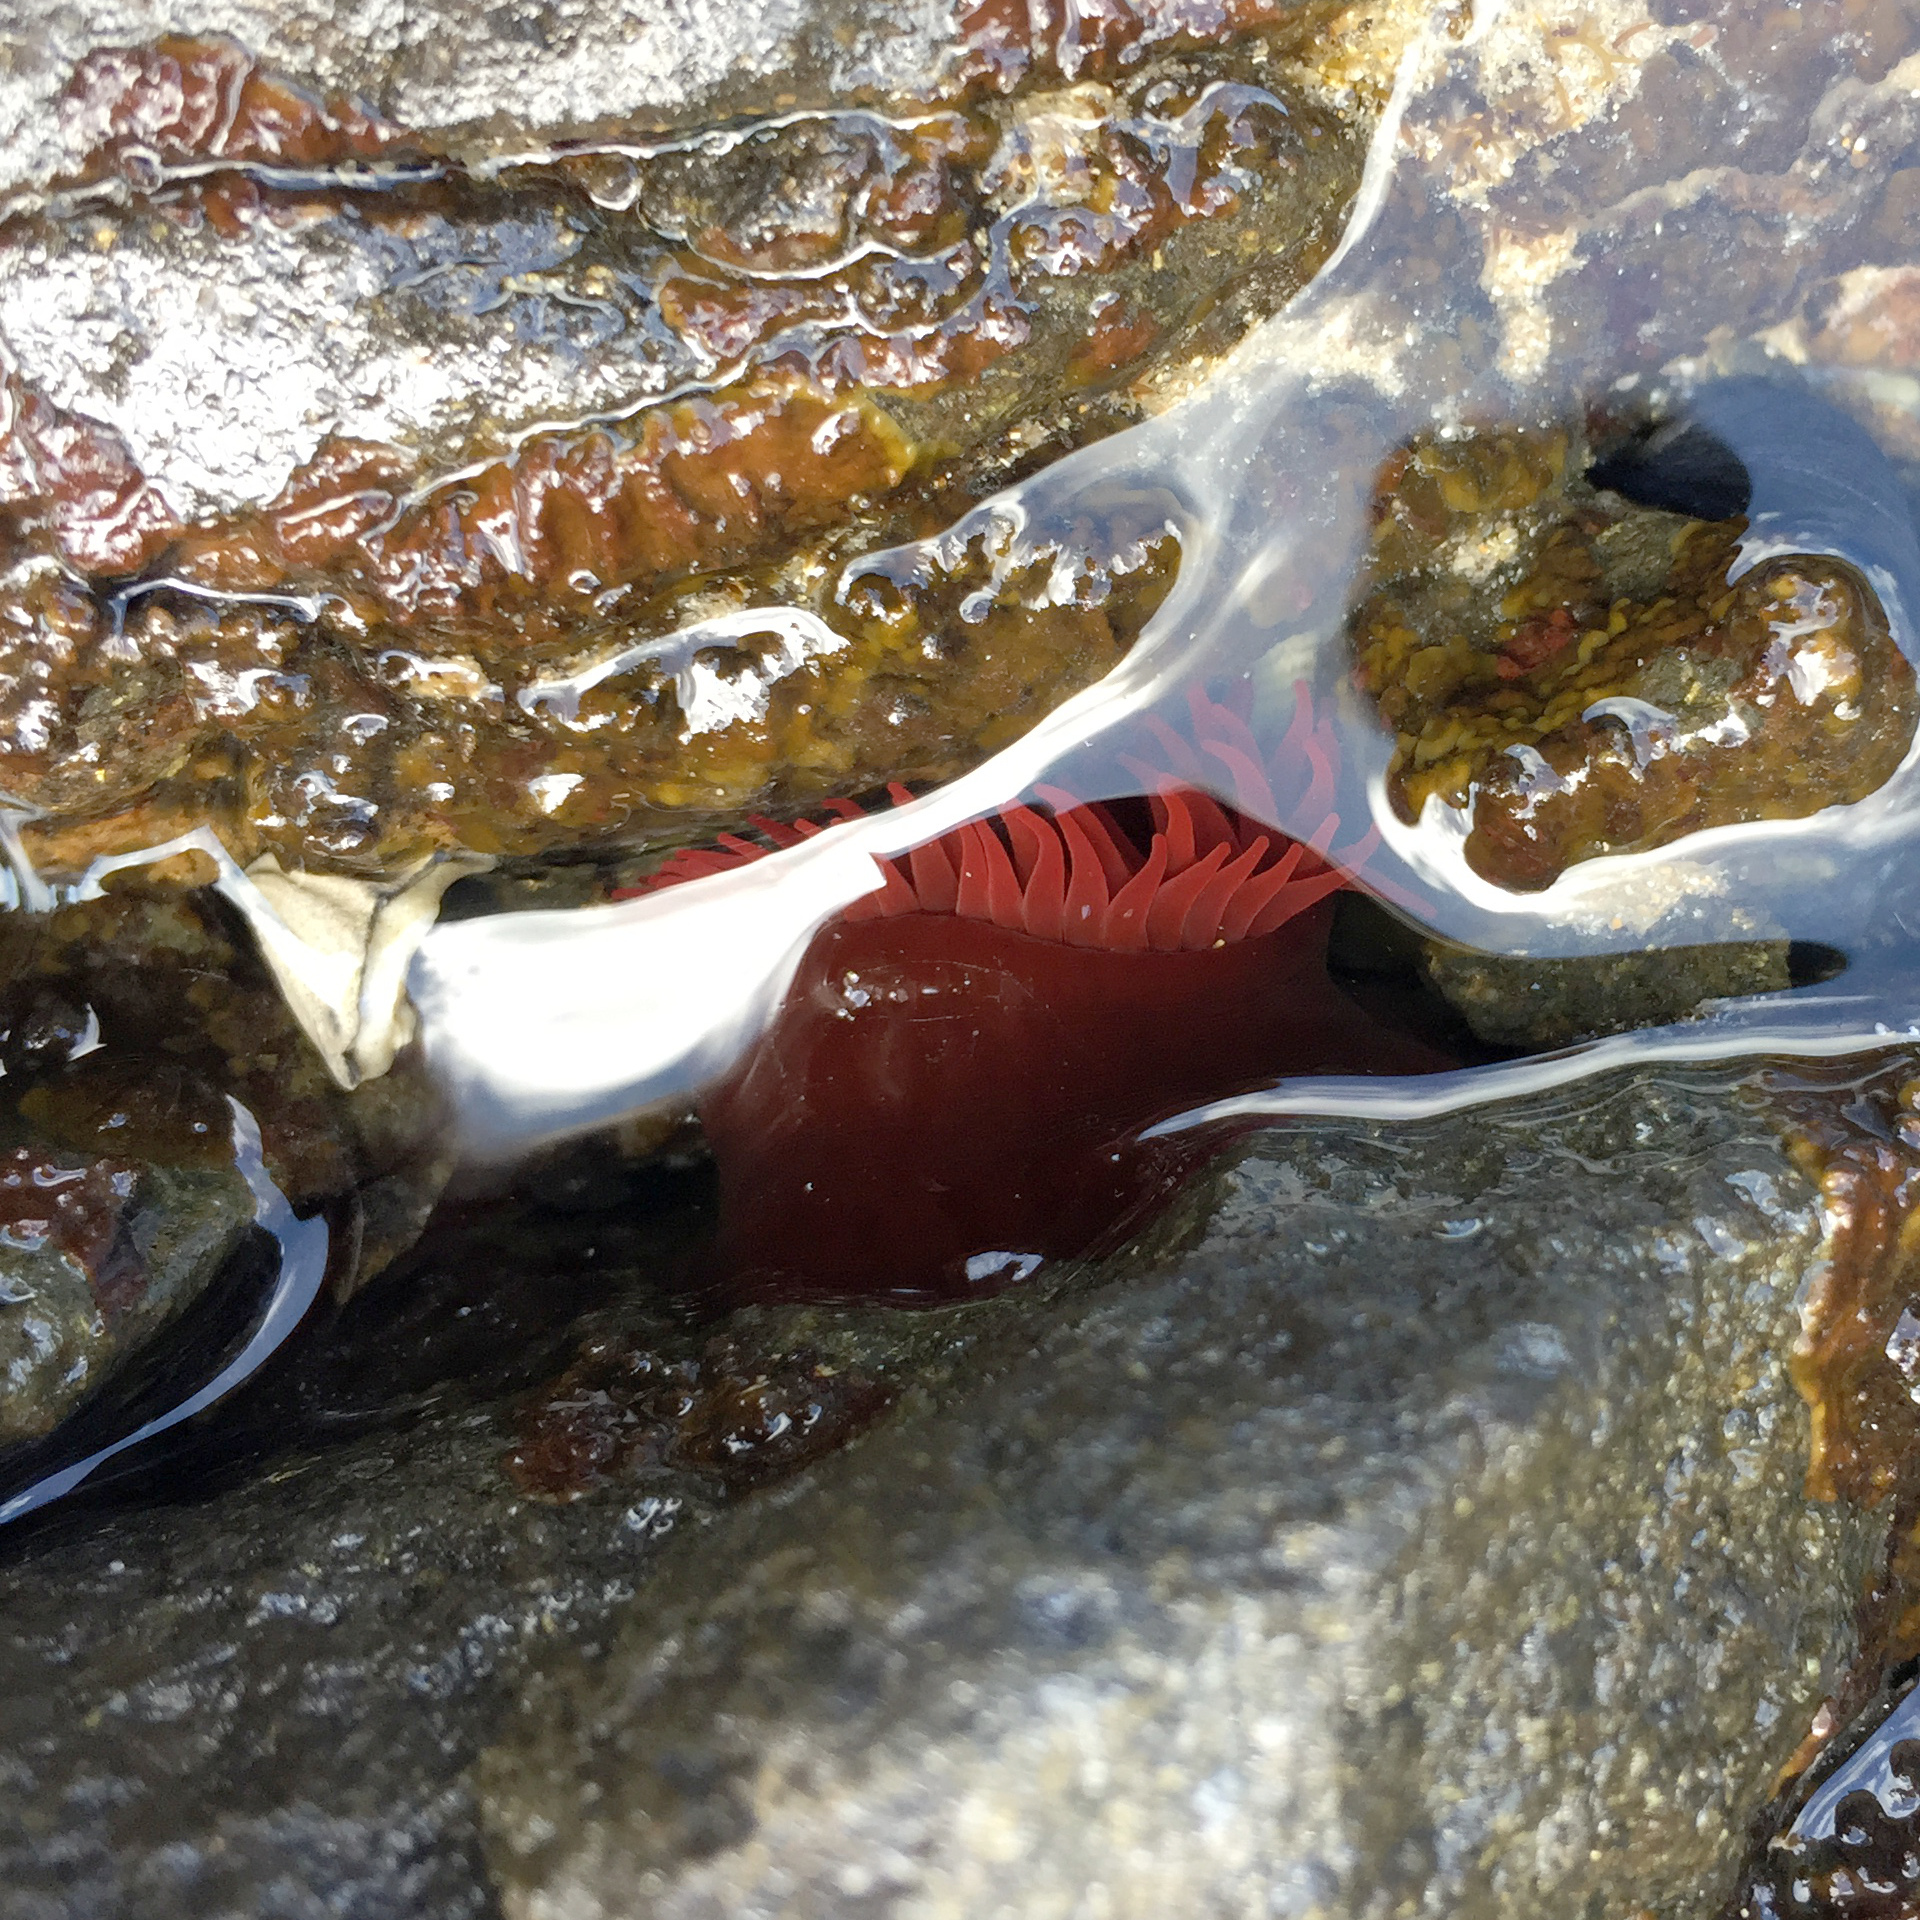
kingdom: Animalia
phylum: Cnidaria
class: Anthozoa
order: Actiniaria
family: Actiniidae
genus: Actinia
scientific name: Actinia tenebrosa
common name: Waratah anemone
